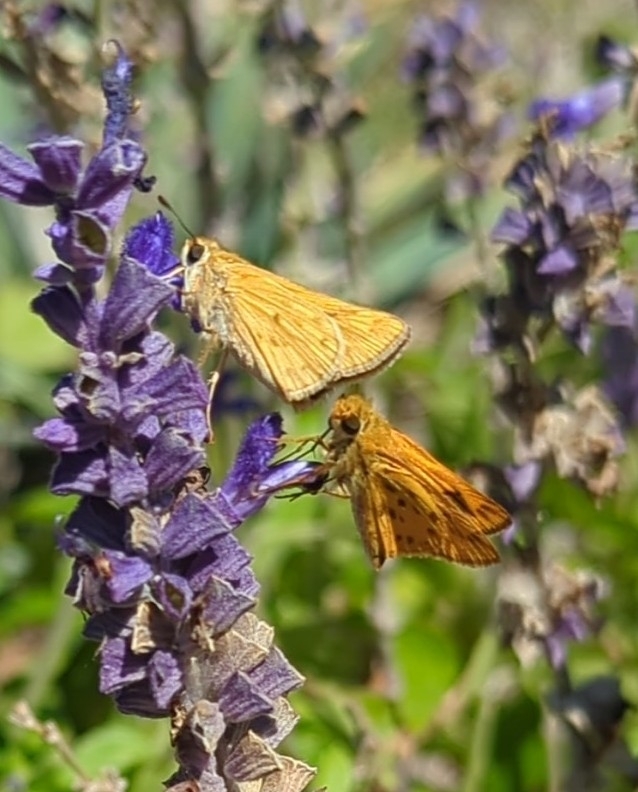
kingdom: Animalia
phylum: Arthropoda
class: Insecta
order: Lepidoptera
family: Hesperiidae
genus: Hylephila
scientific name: Hylephila phyleus
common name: Fiery skipper
